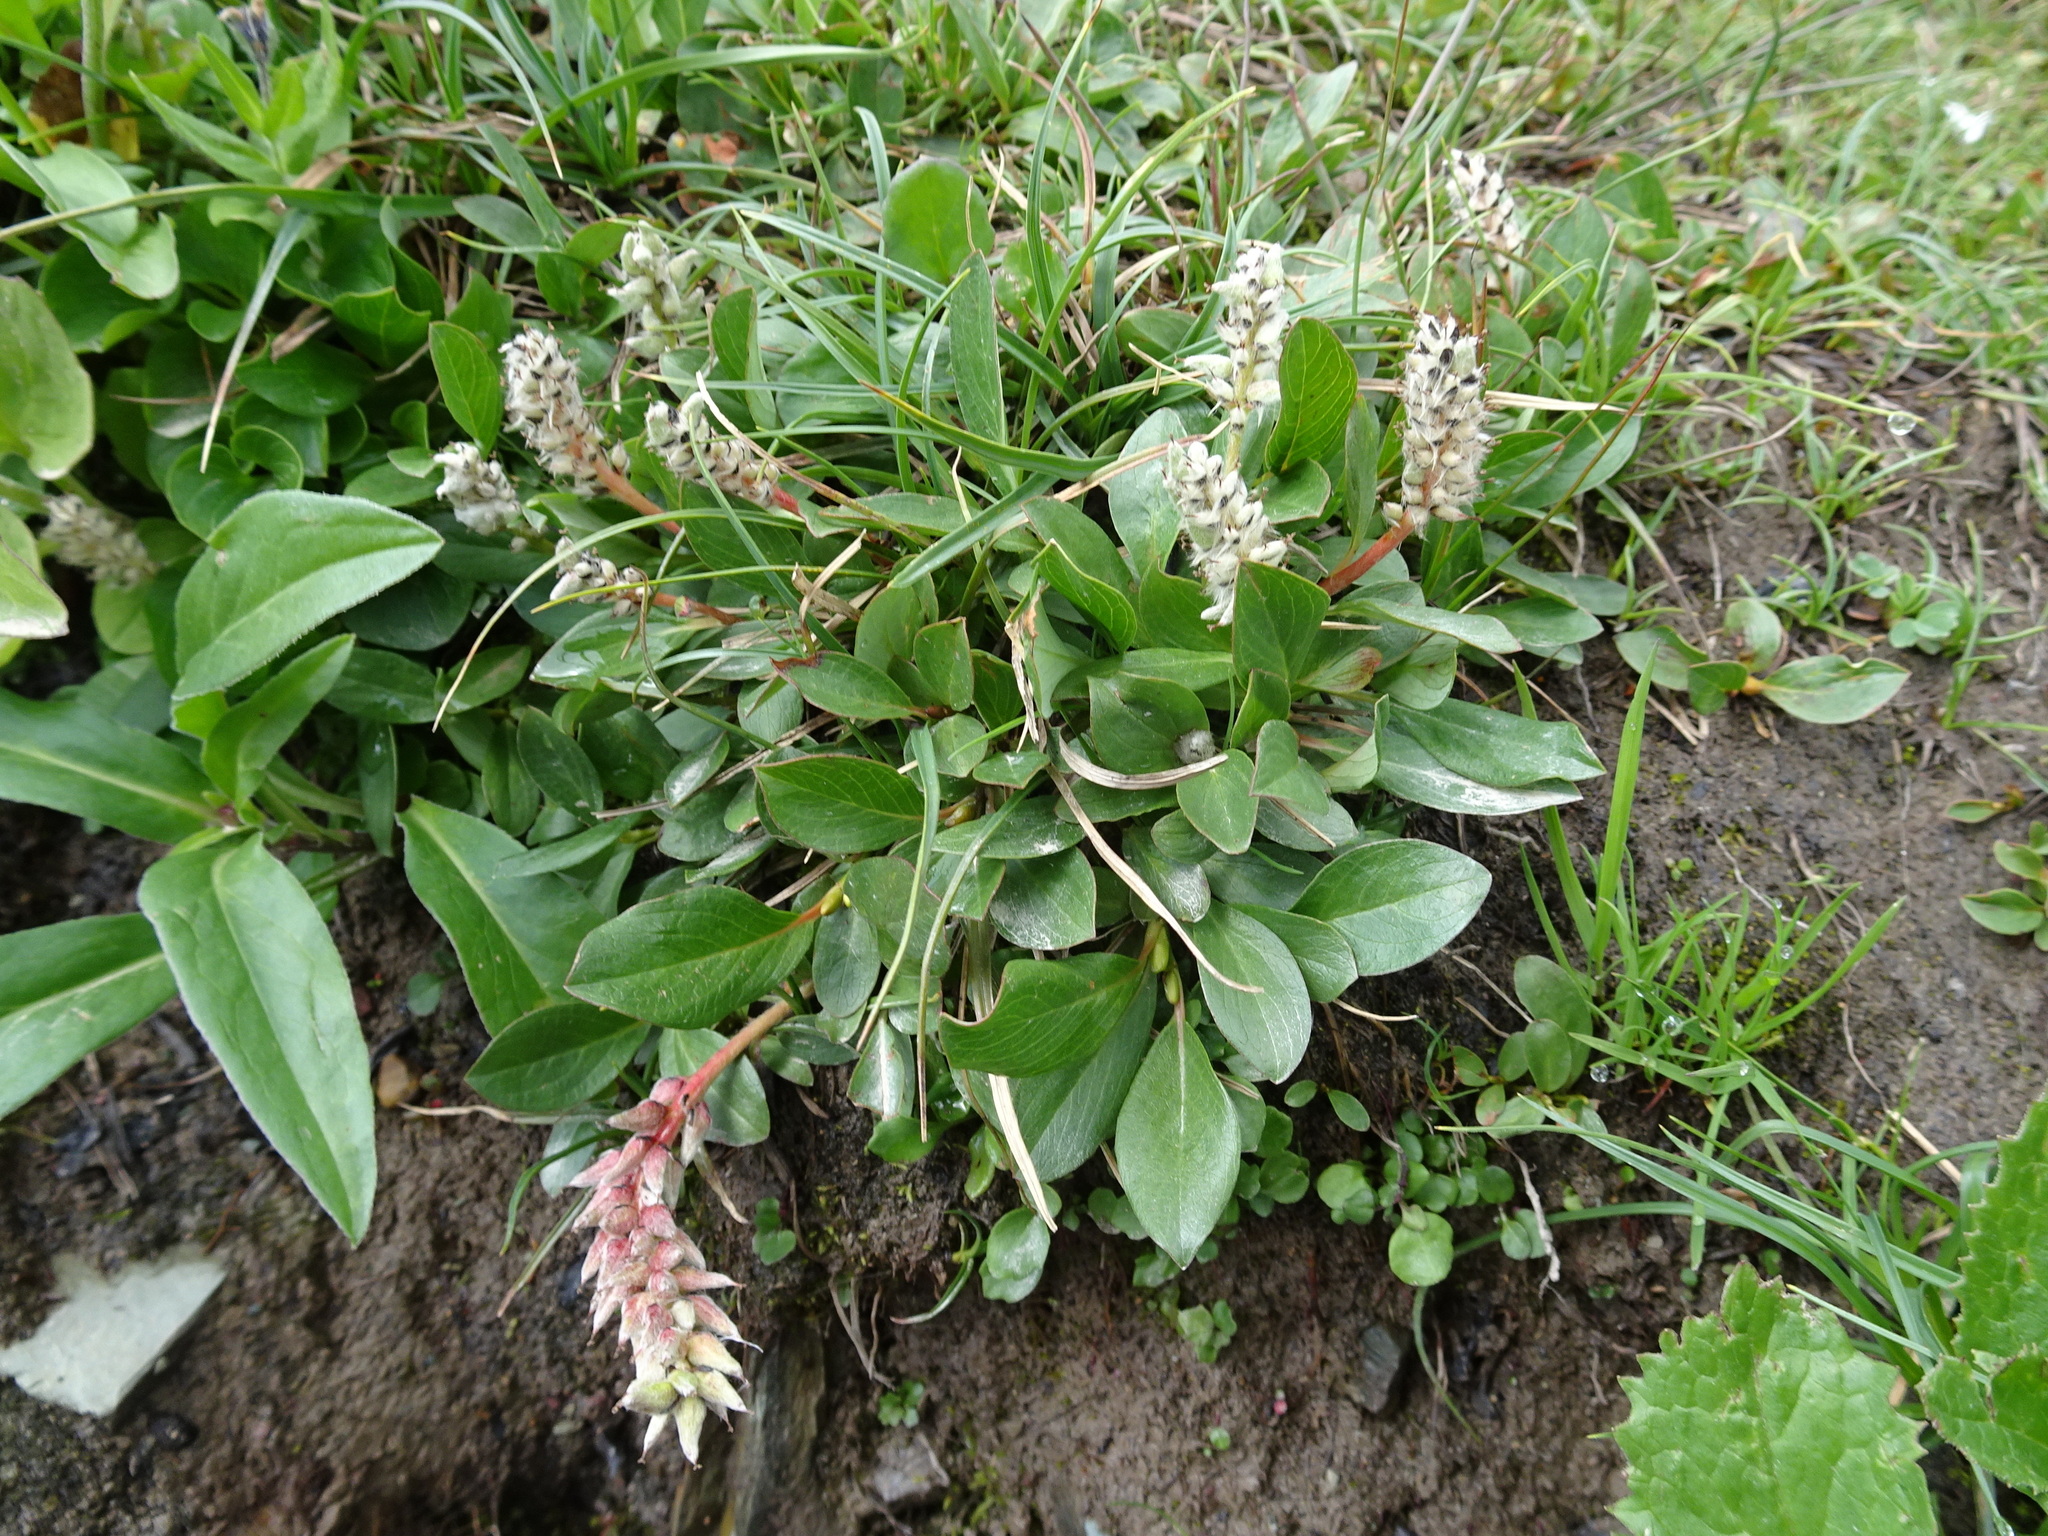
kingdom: Plantae
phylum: Tracheophyta
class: Magnoliopsida
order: Malpighiales
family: Salicaceae
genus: Salix
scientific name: Salix petrophila
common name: Rocky mountain willow
